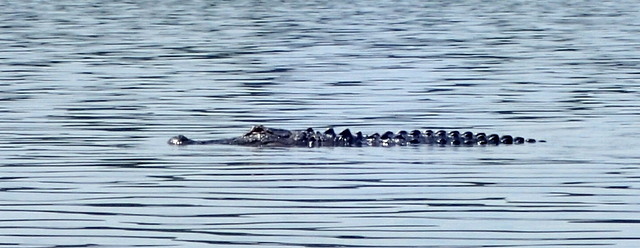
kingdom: Animalia
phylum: Chordata
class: Crocodylia
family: Alligatoridae
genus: Alligator
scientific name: Alligator mississippiensis
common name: American alligator
